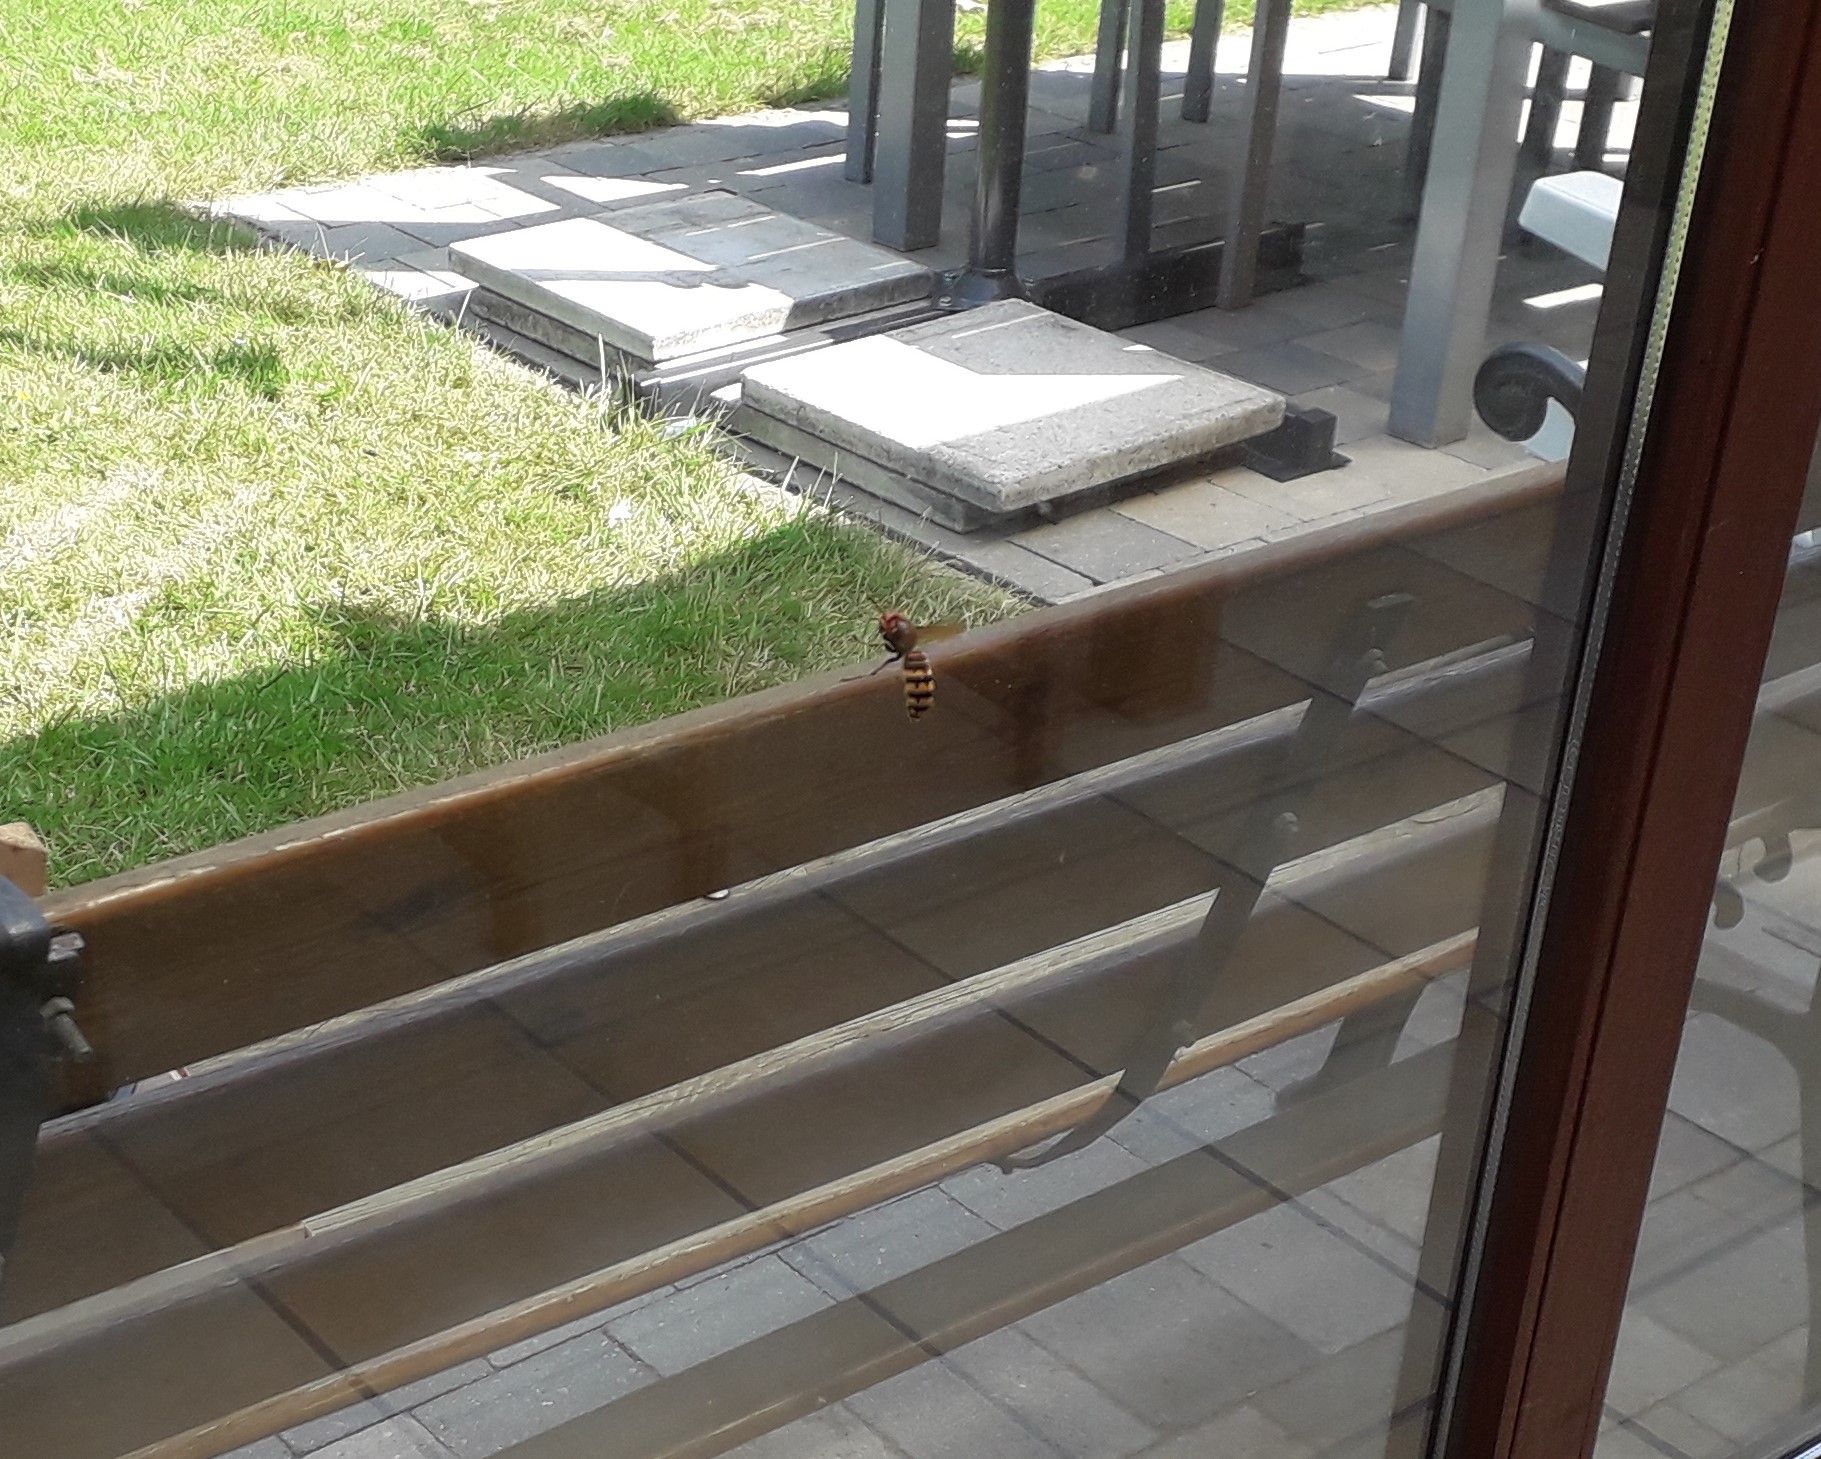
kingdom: Animalia
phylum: Arthropoda
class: Insecta
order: Hymenoptera
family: Vespidae
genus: Vespa
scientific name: Vespa crabro
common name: Hornet
